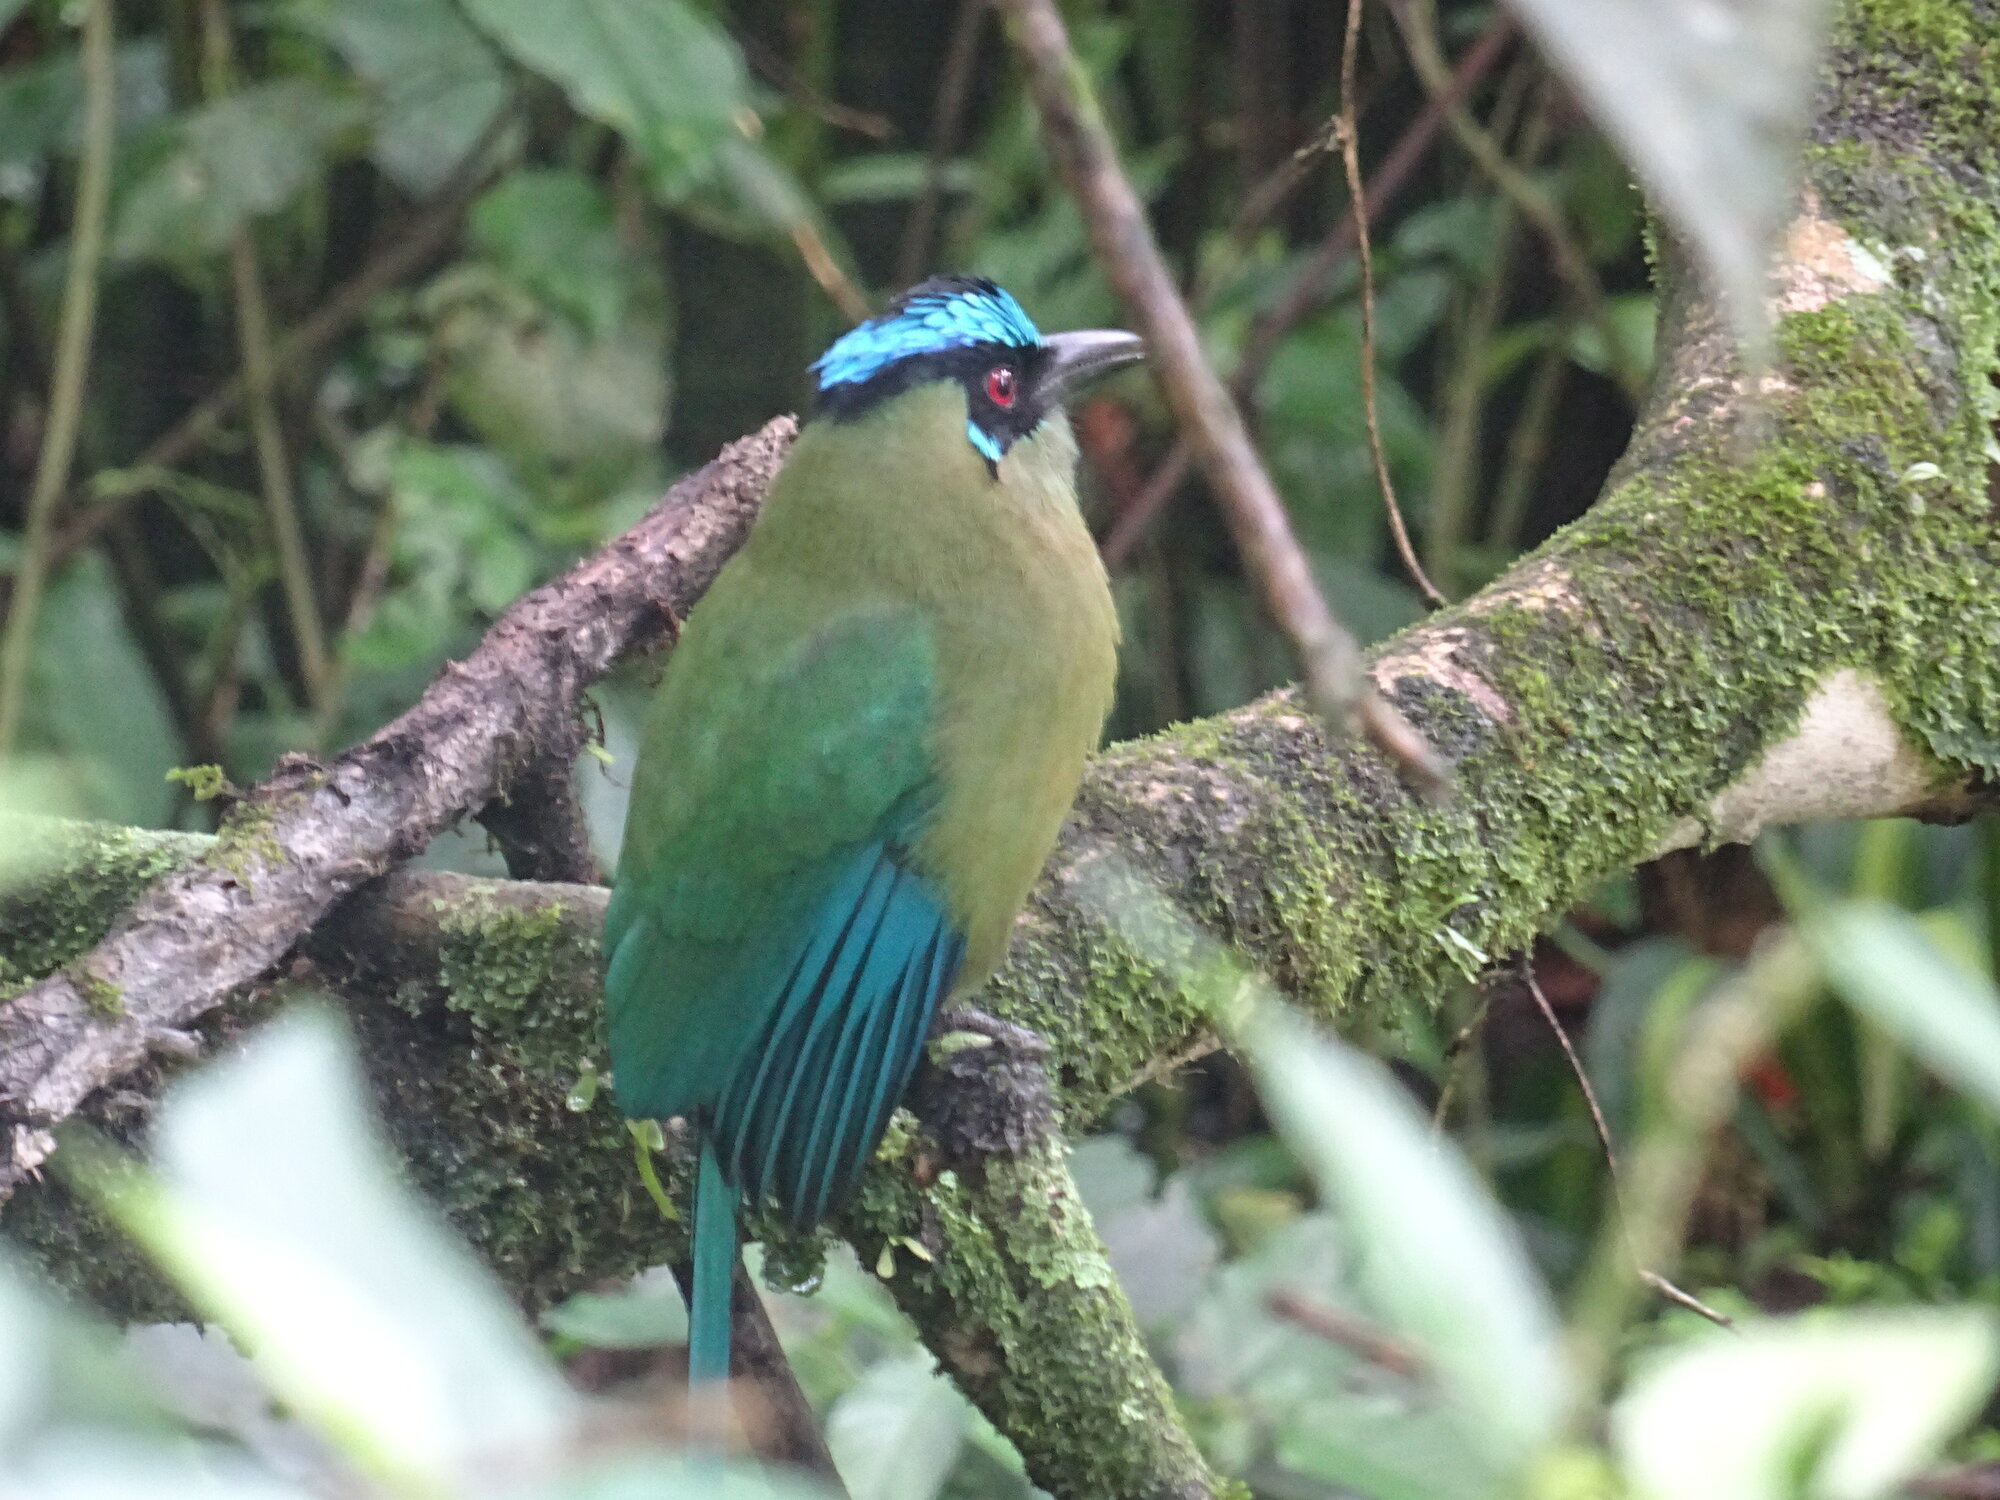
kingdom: Animalia
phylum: Chordata
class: Aves
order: Coraciiformes
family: Momotidae
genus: Momotus
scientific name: Momotus aequatorialis
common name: Andean motmot
